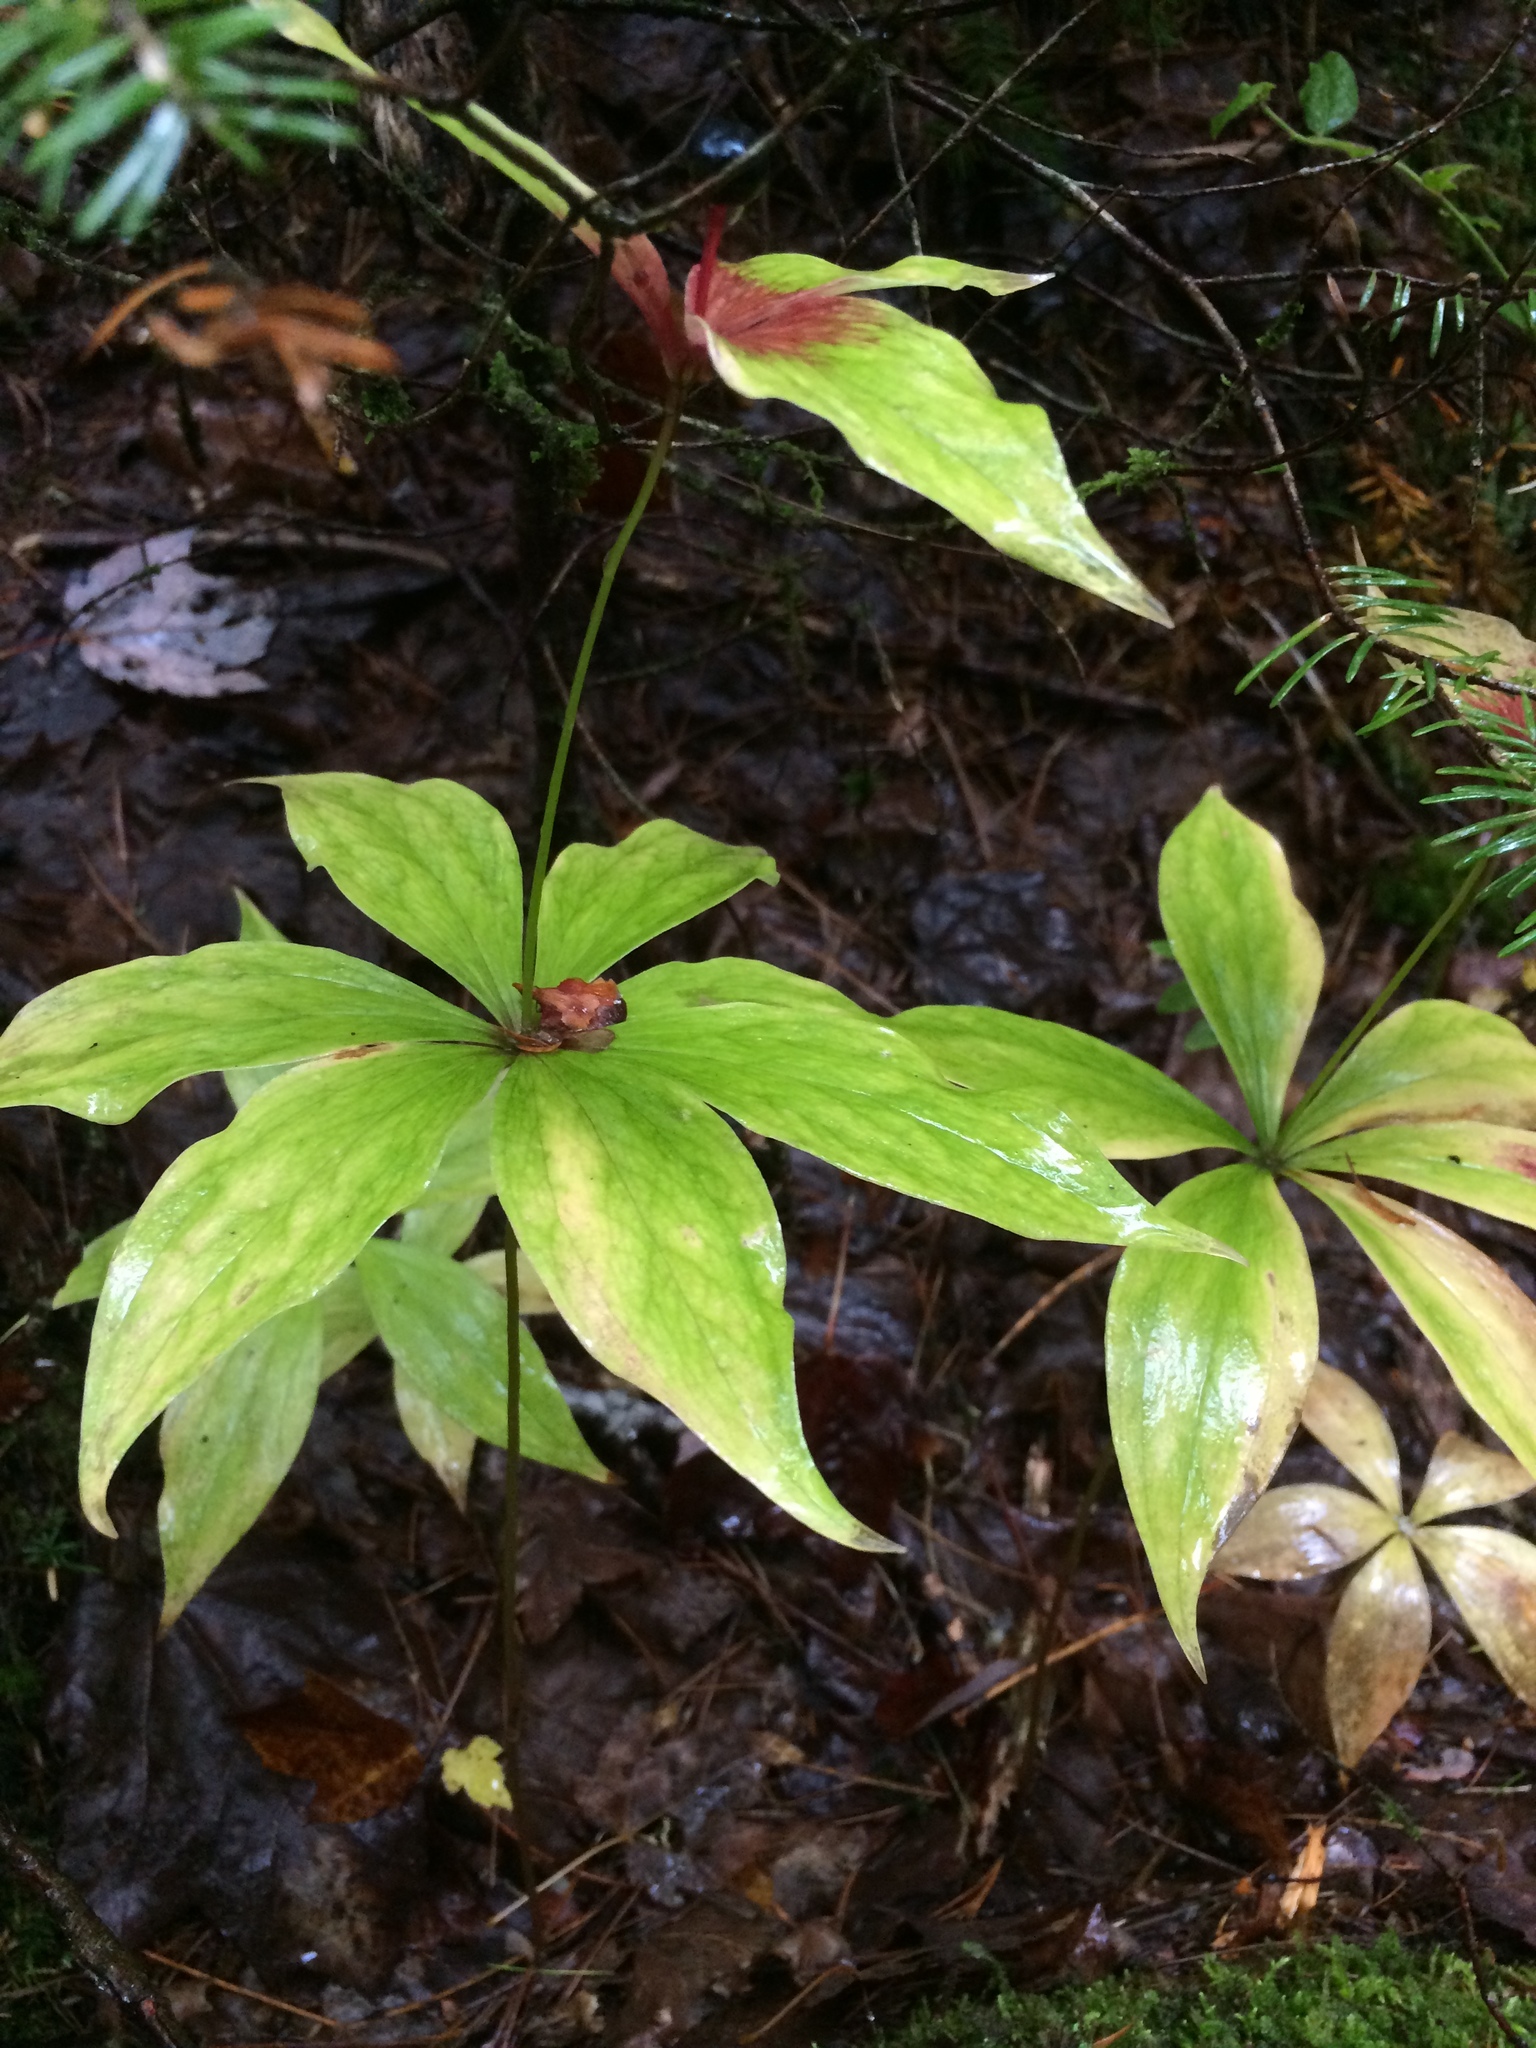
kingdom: Plantae
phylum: Tracheophyta
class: Liliopsida
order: Liliales
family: Liliaceae
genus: Medeola
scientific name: Medeola virginiana
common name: Indian cucumber-root
